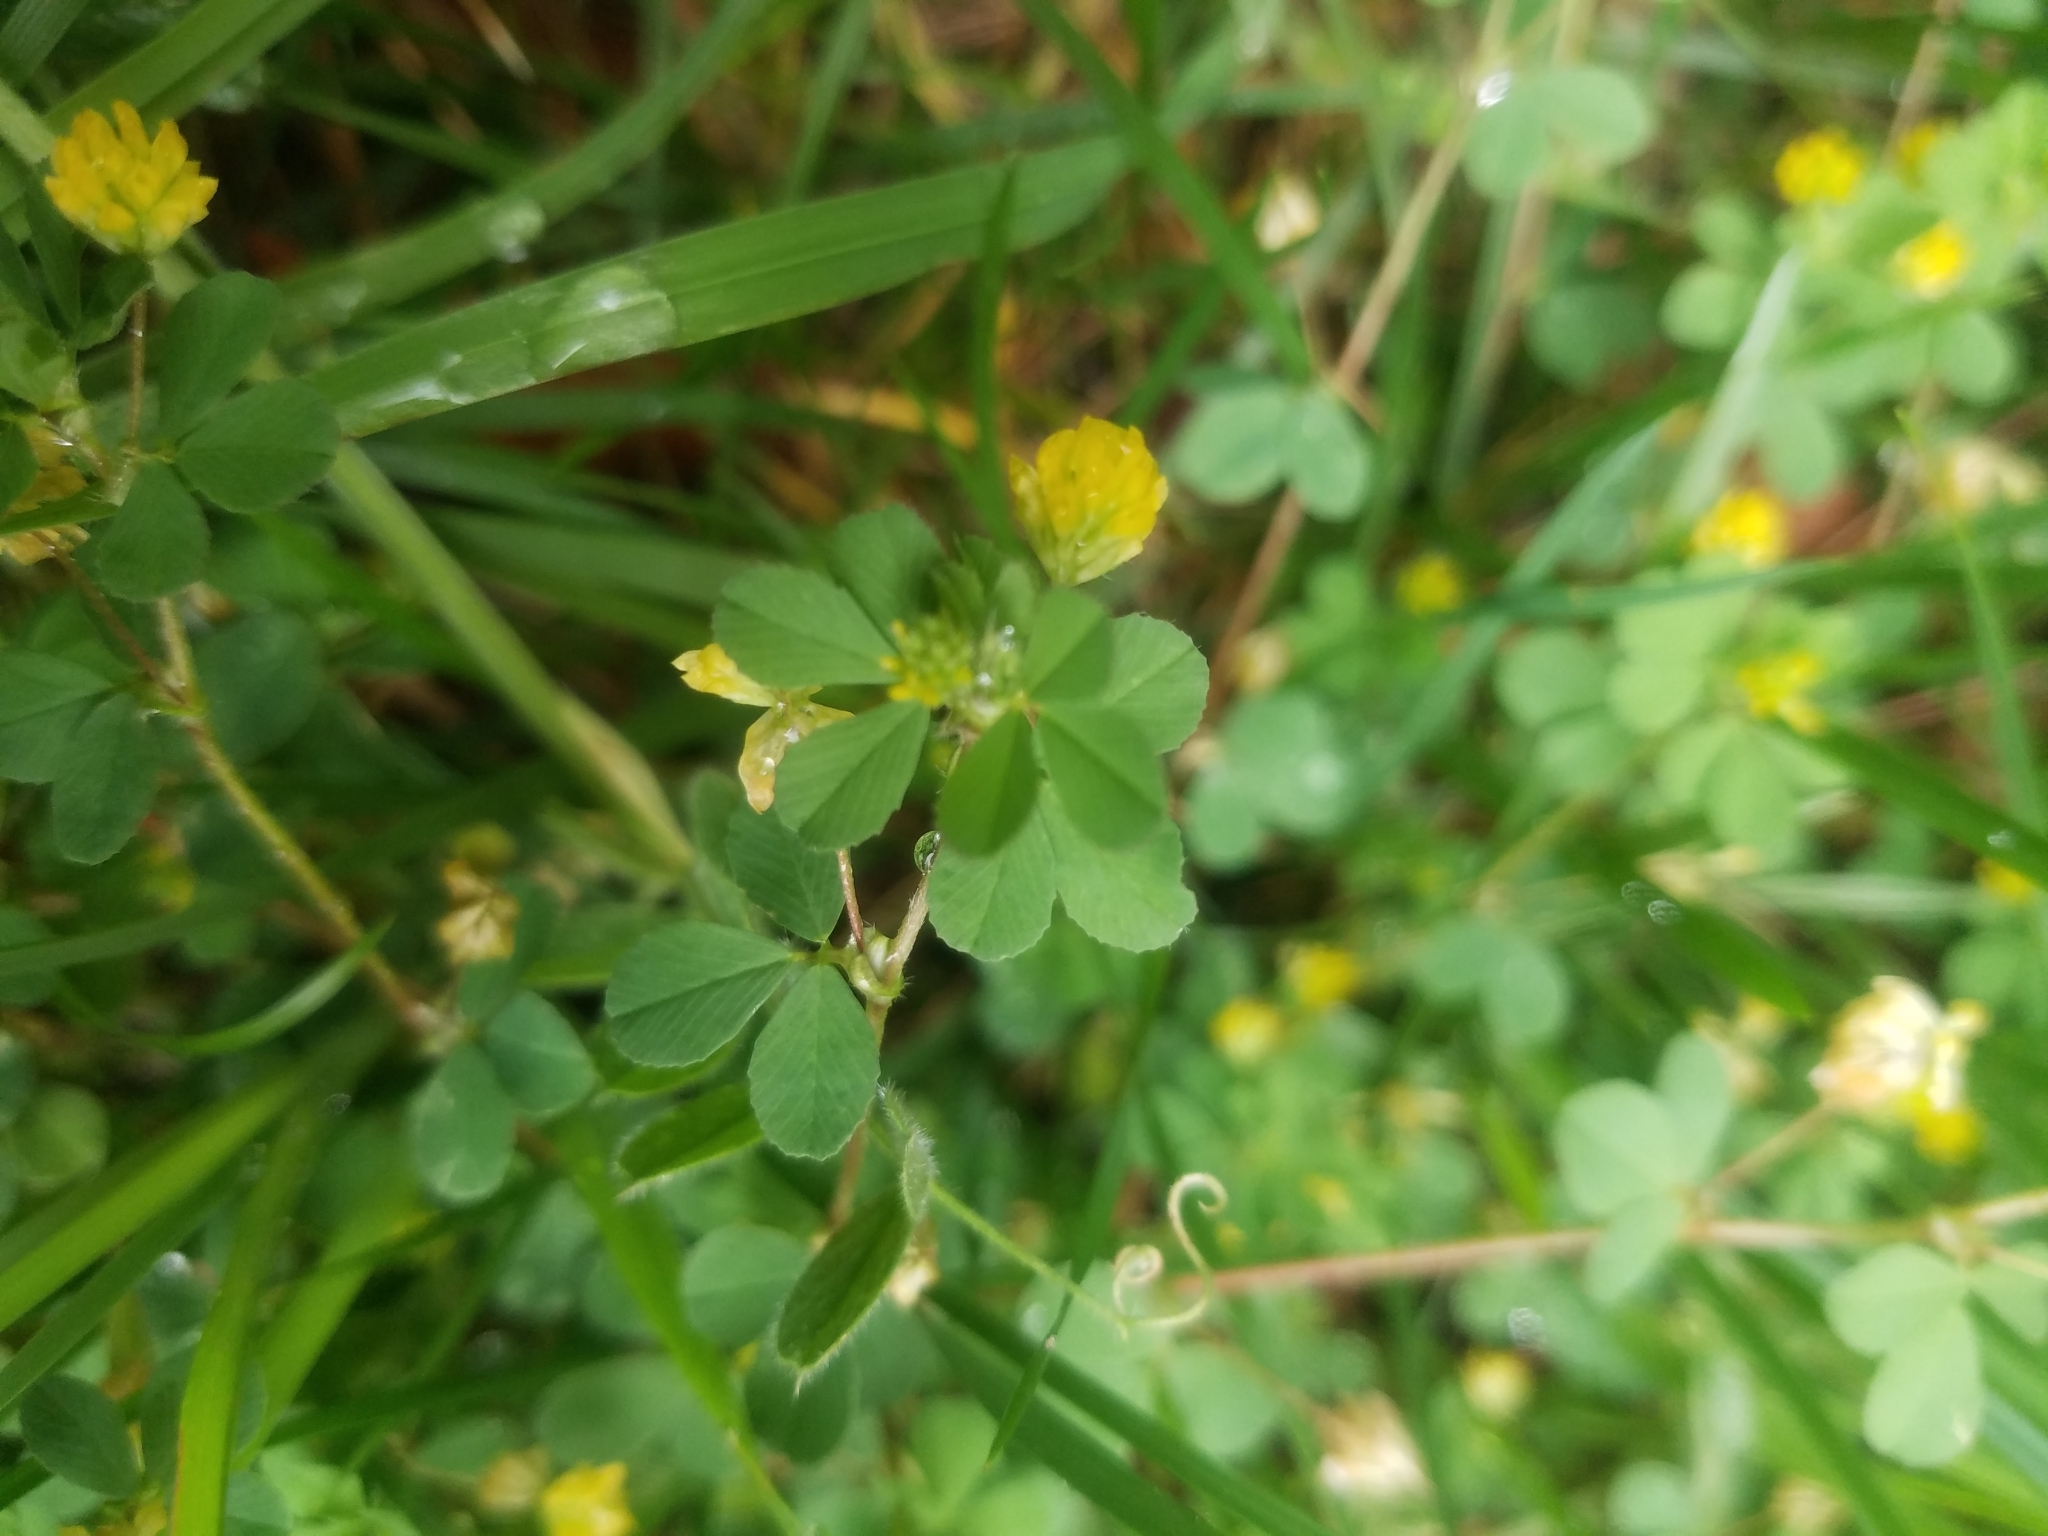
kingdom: Plantae
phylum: Tracheophyta
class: Magnoliopsida
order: Fabales
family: Fabaceae
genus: Medicago
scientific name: Medicago lupulina
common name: Black medick
